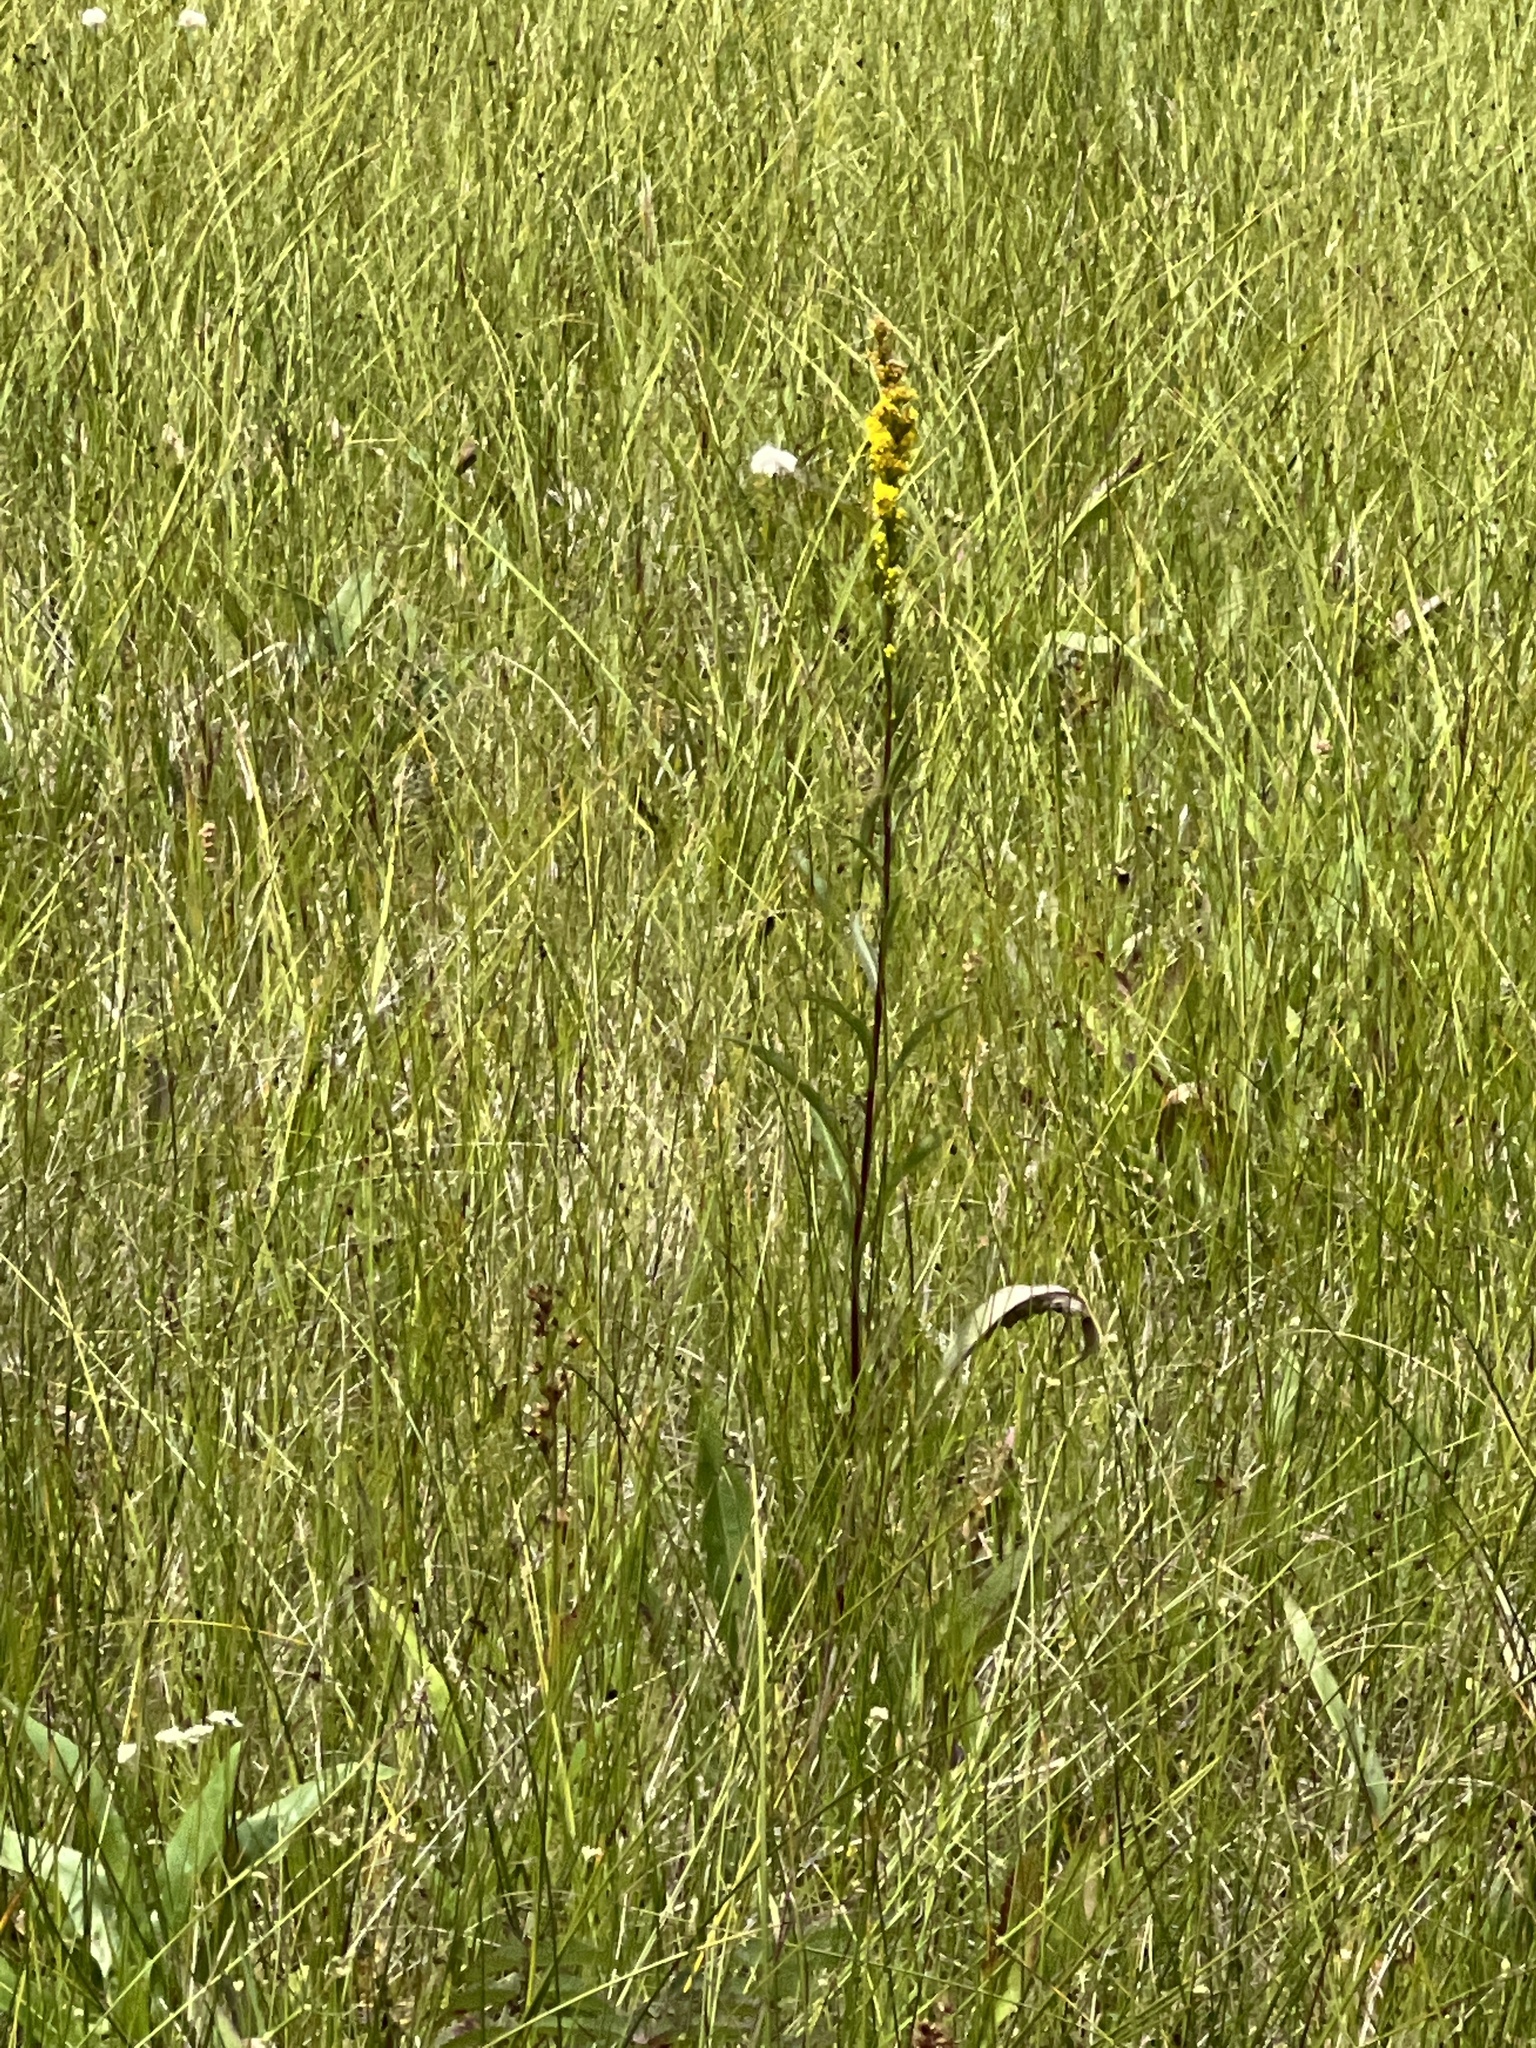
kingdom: Plantae
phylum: Tracheophyta
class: Magnoliopsida
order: Asterales
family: Asteraceae
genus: Solidago
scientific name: Solidago uliginosa
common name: Bog goldenrod
